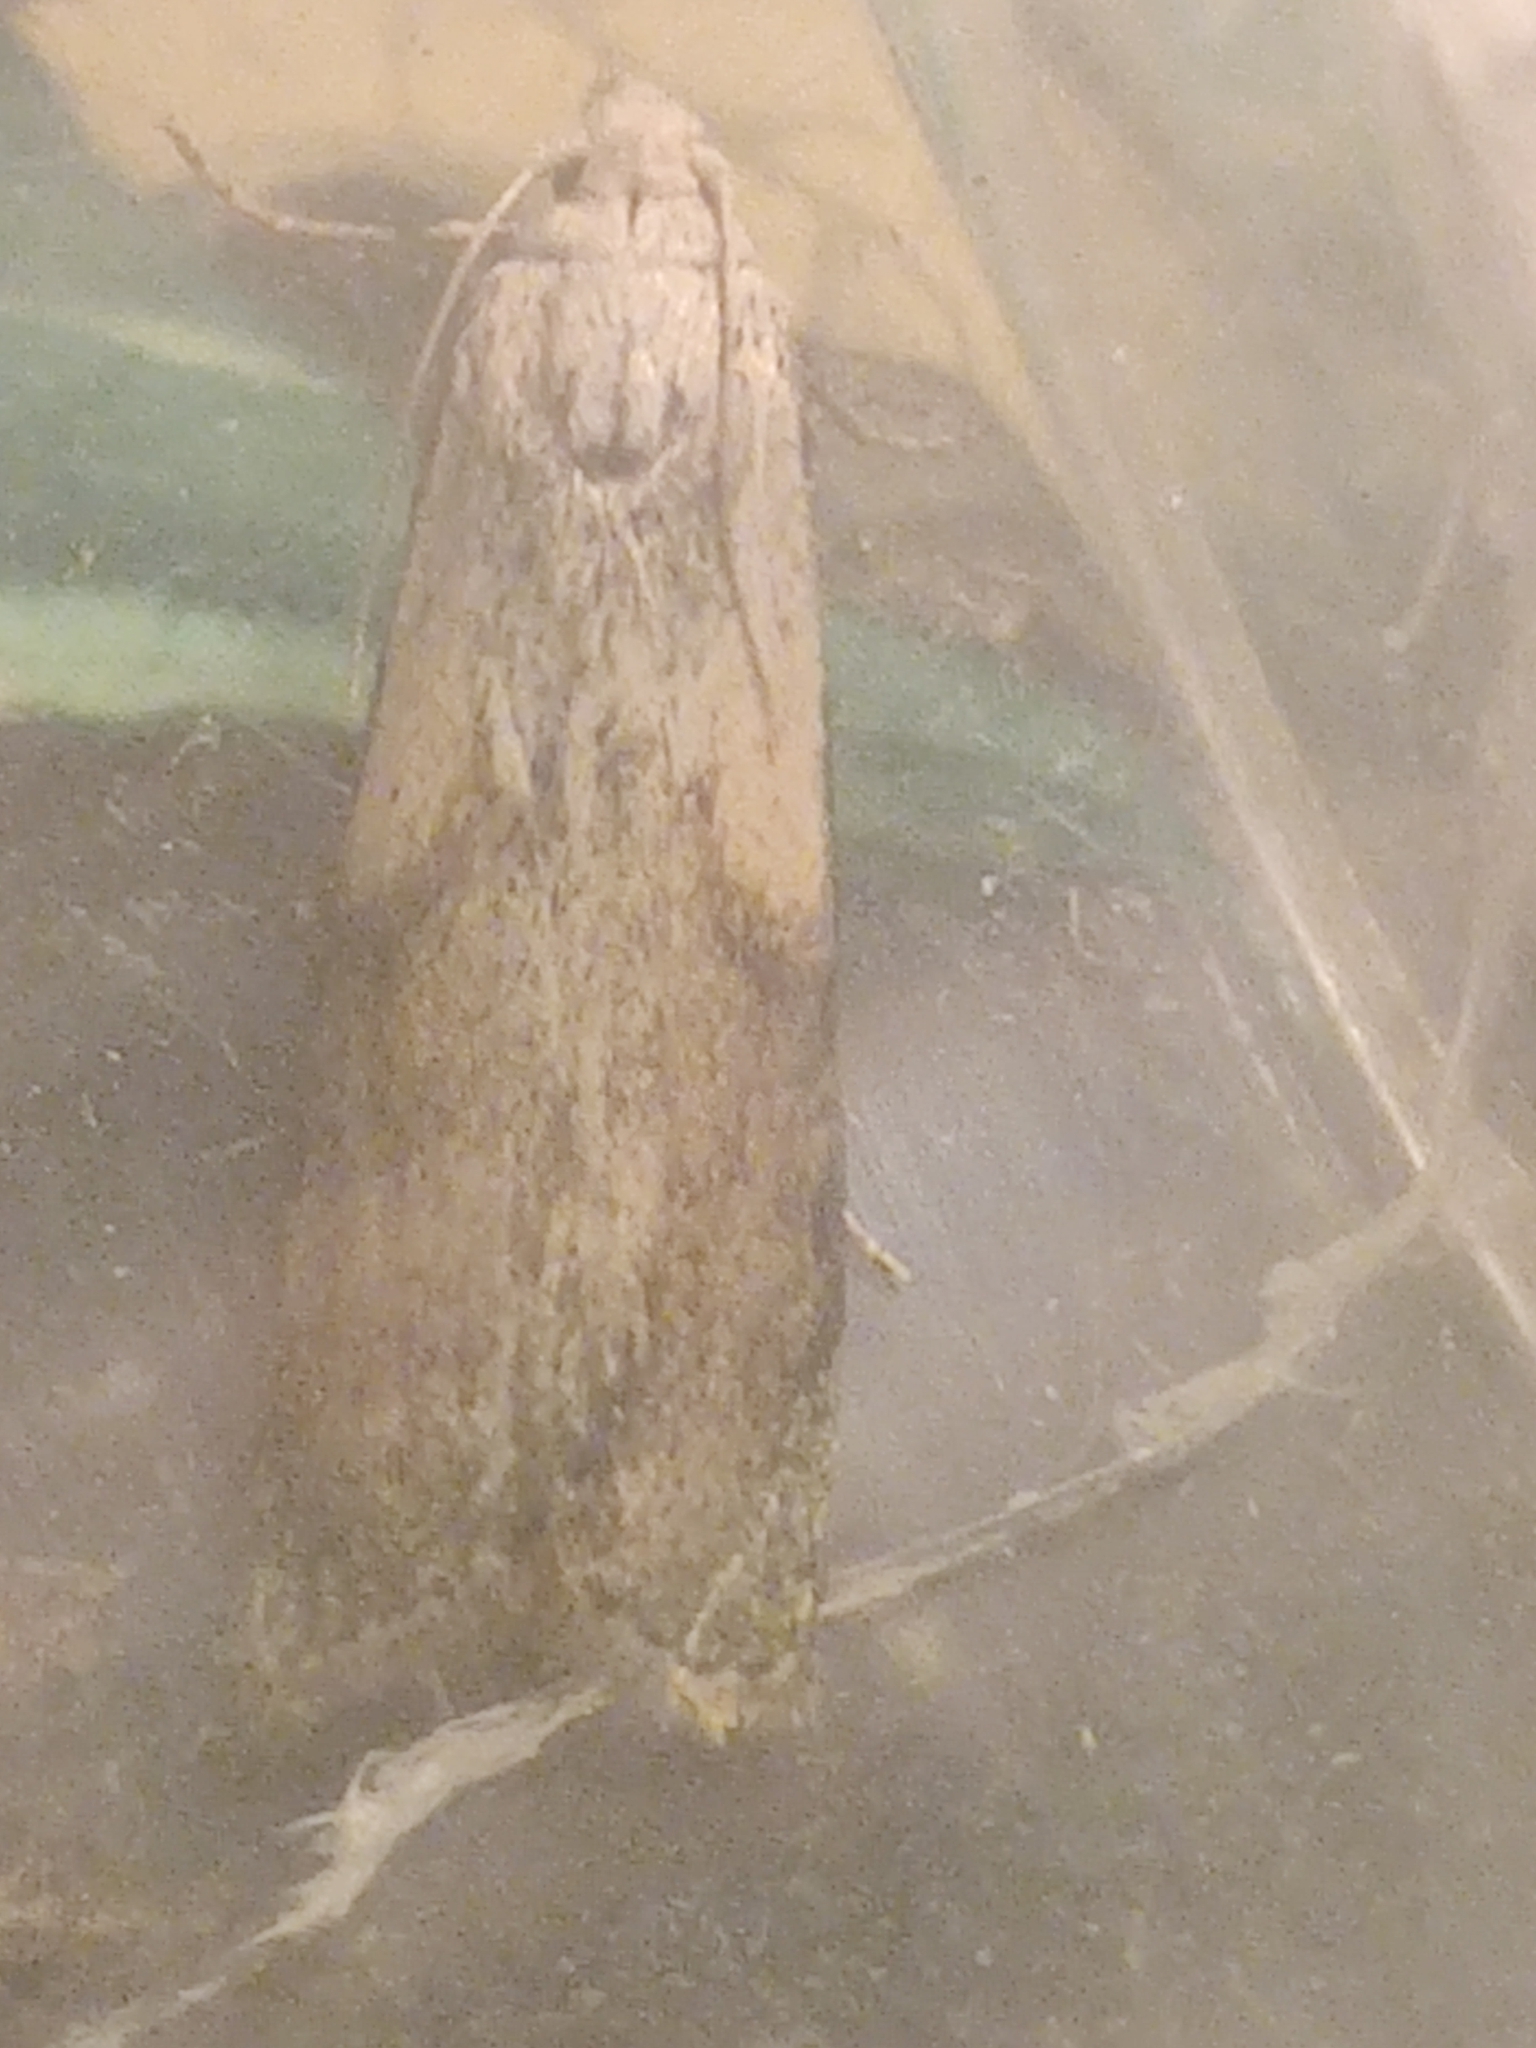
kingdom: Animalia
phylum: Arthropoda
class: Insecta
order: Lepidoptera
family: Pyralidae
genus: Aphomia
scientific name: Aphomia sociella
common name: Bee moth
